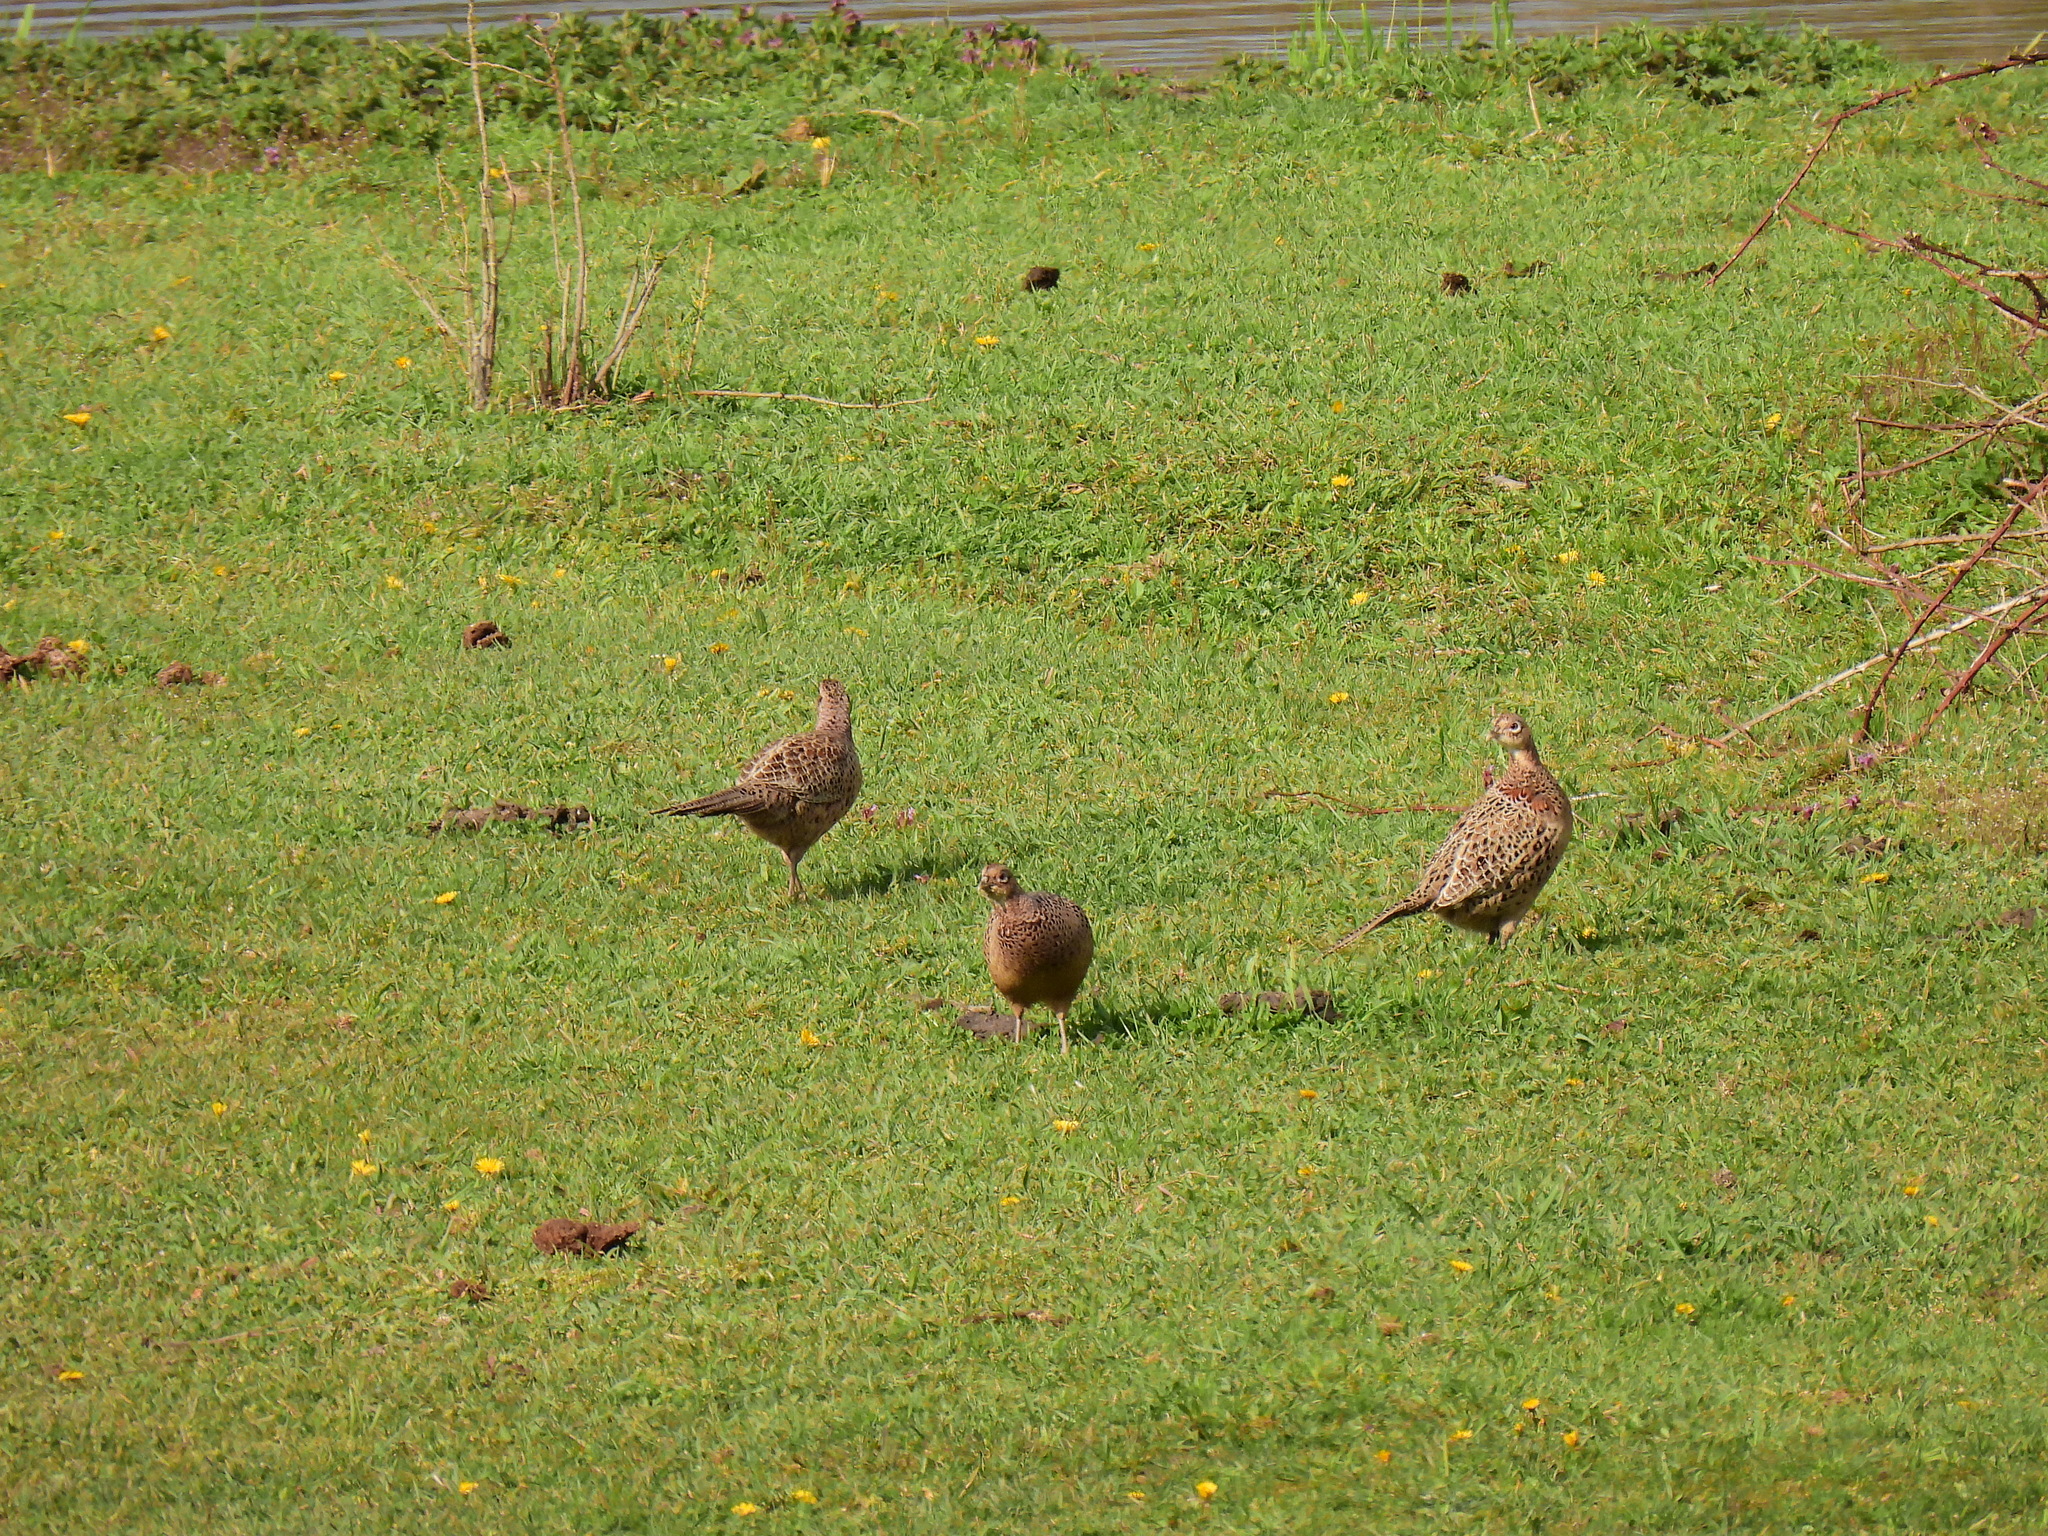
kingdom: Animalia
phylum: Chordata
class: Aves
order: Galliformes
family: Phasianidae
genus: Phasianus
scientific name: Phasianus colchicus
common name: Common pheasant
